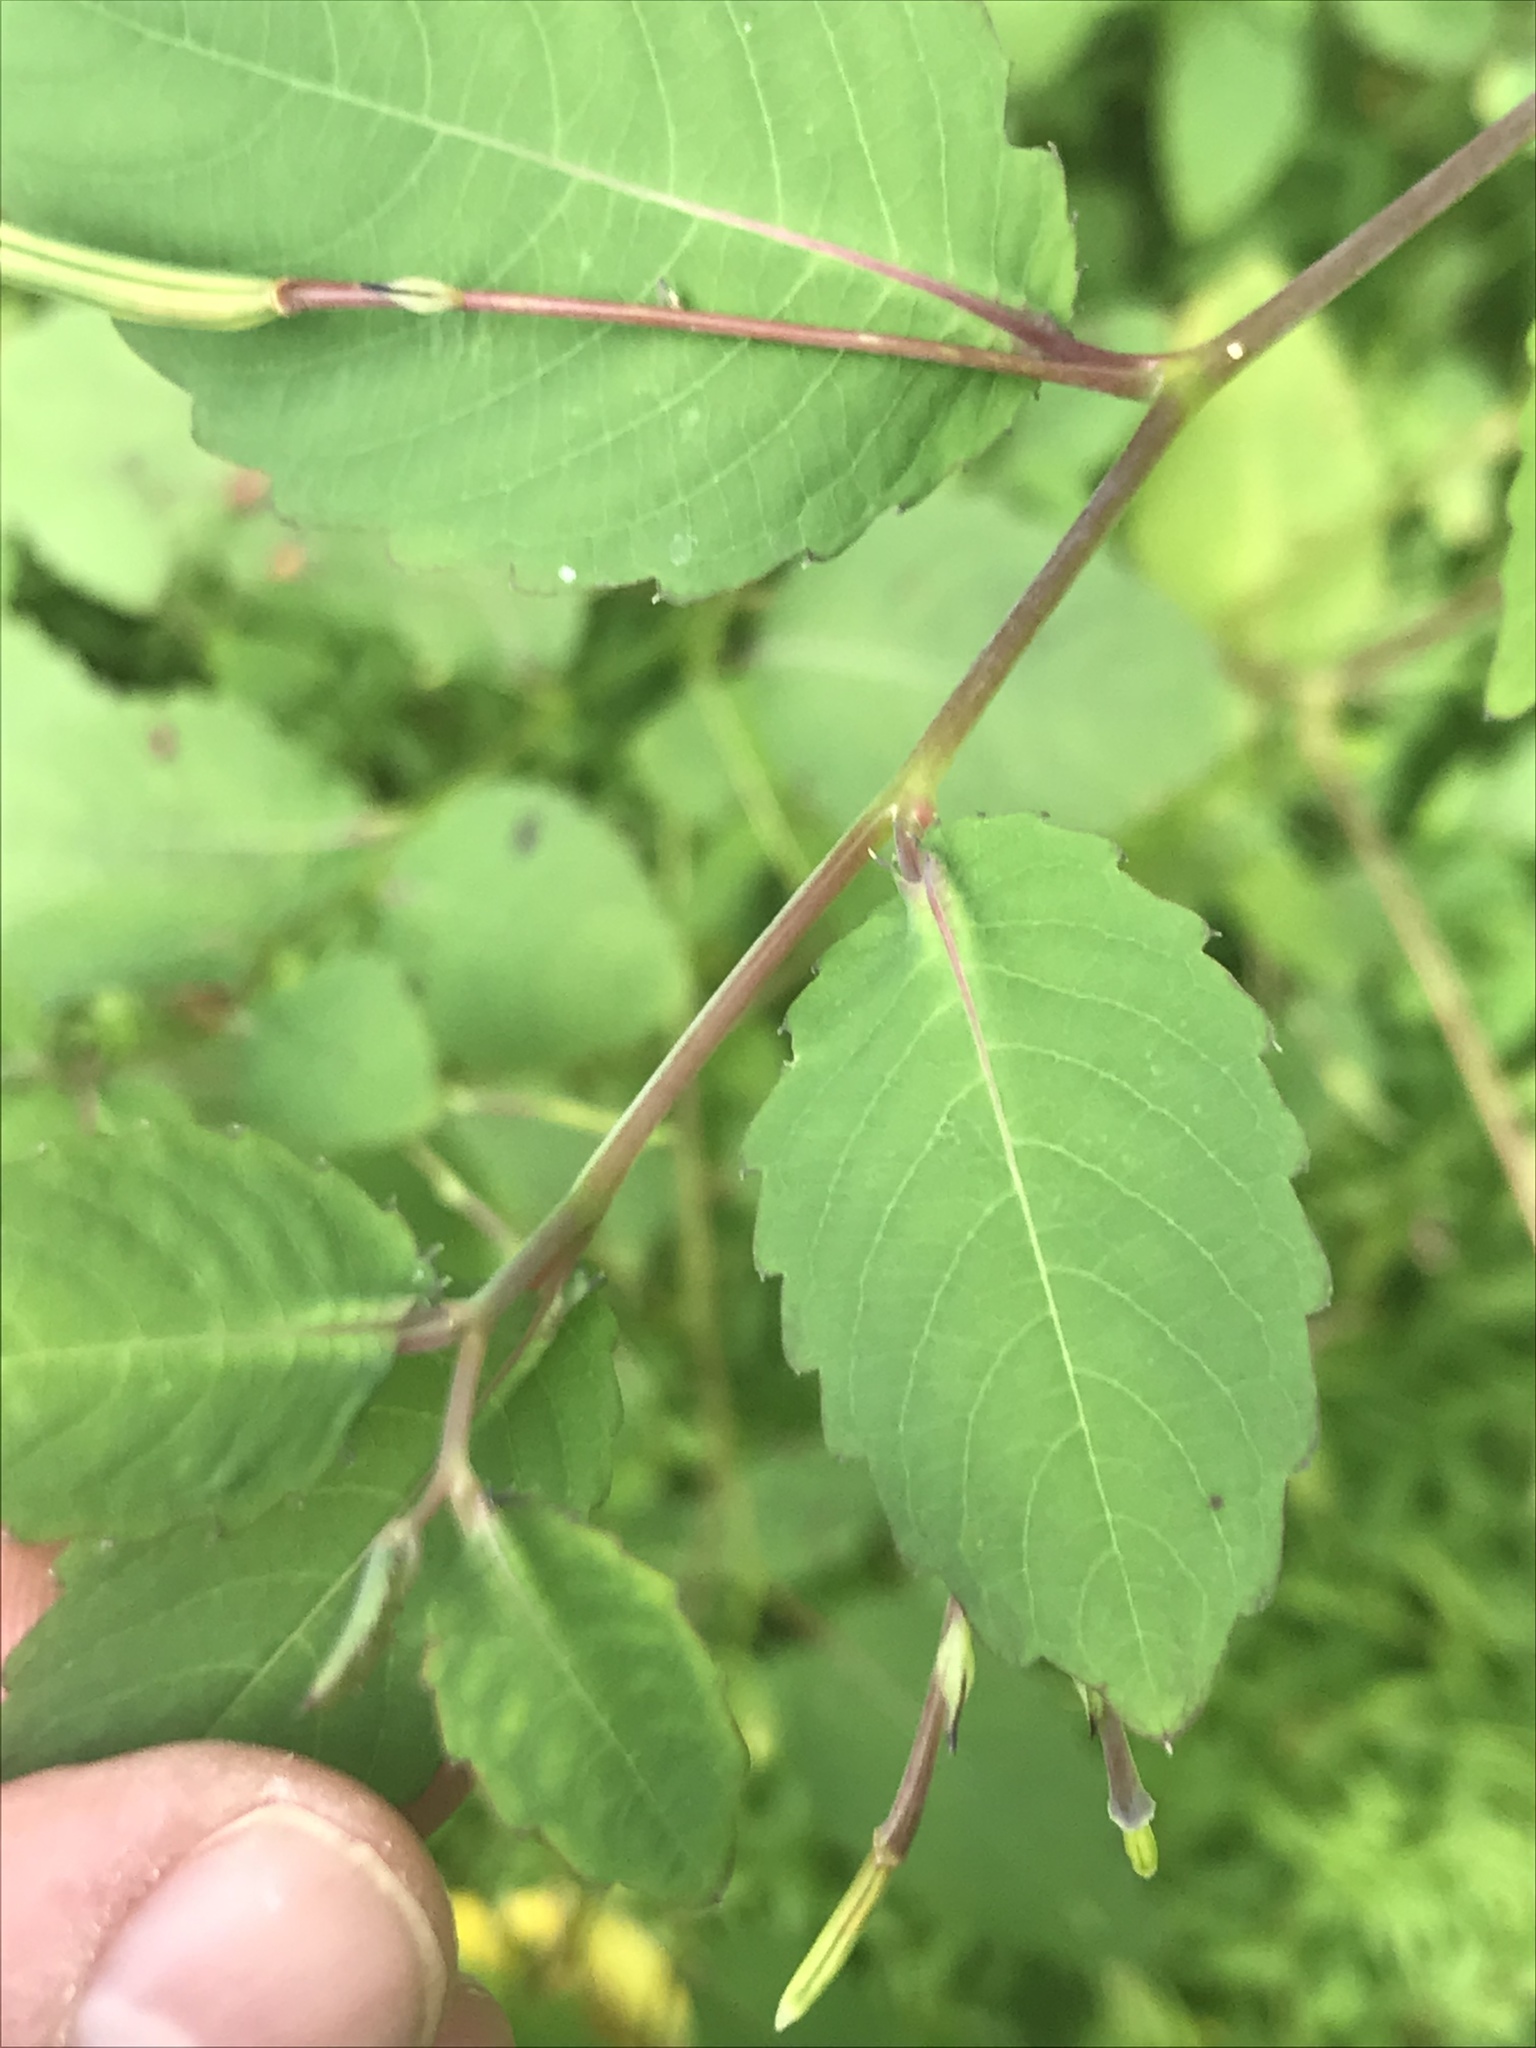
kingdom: Plantae
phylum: Tracheophyta
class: Magnoliopsida
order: Ericales
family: Balsaminaceae
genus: Impatiens
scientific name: Impatiens pallida
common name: Pale snapweed
